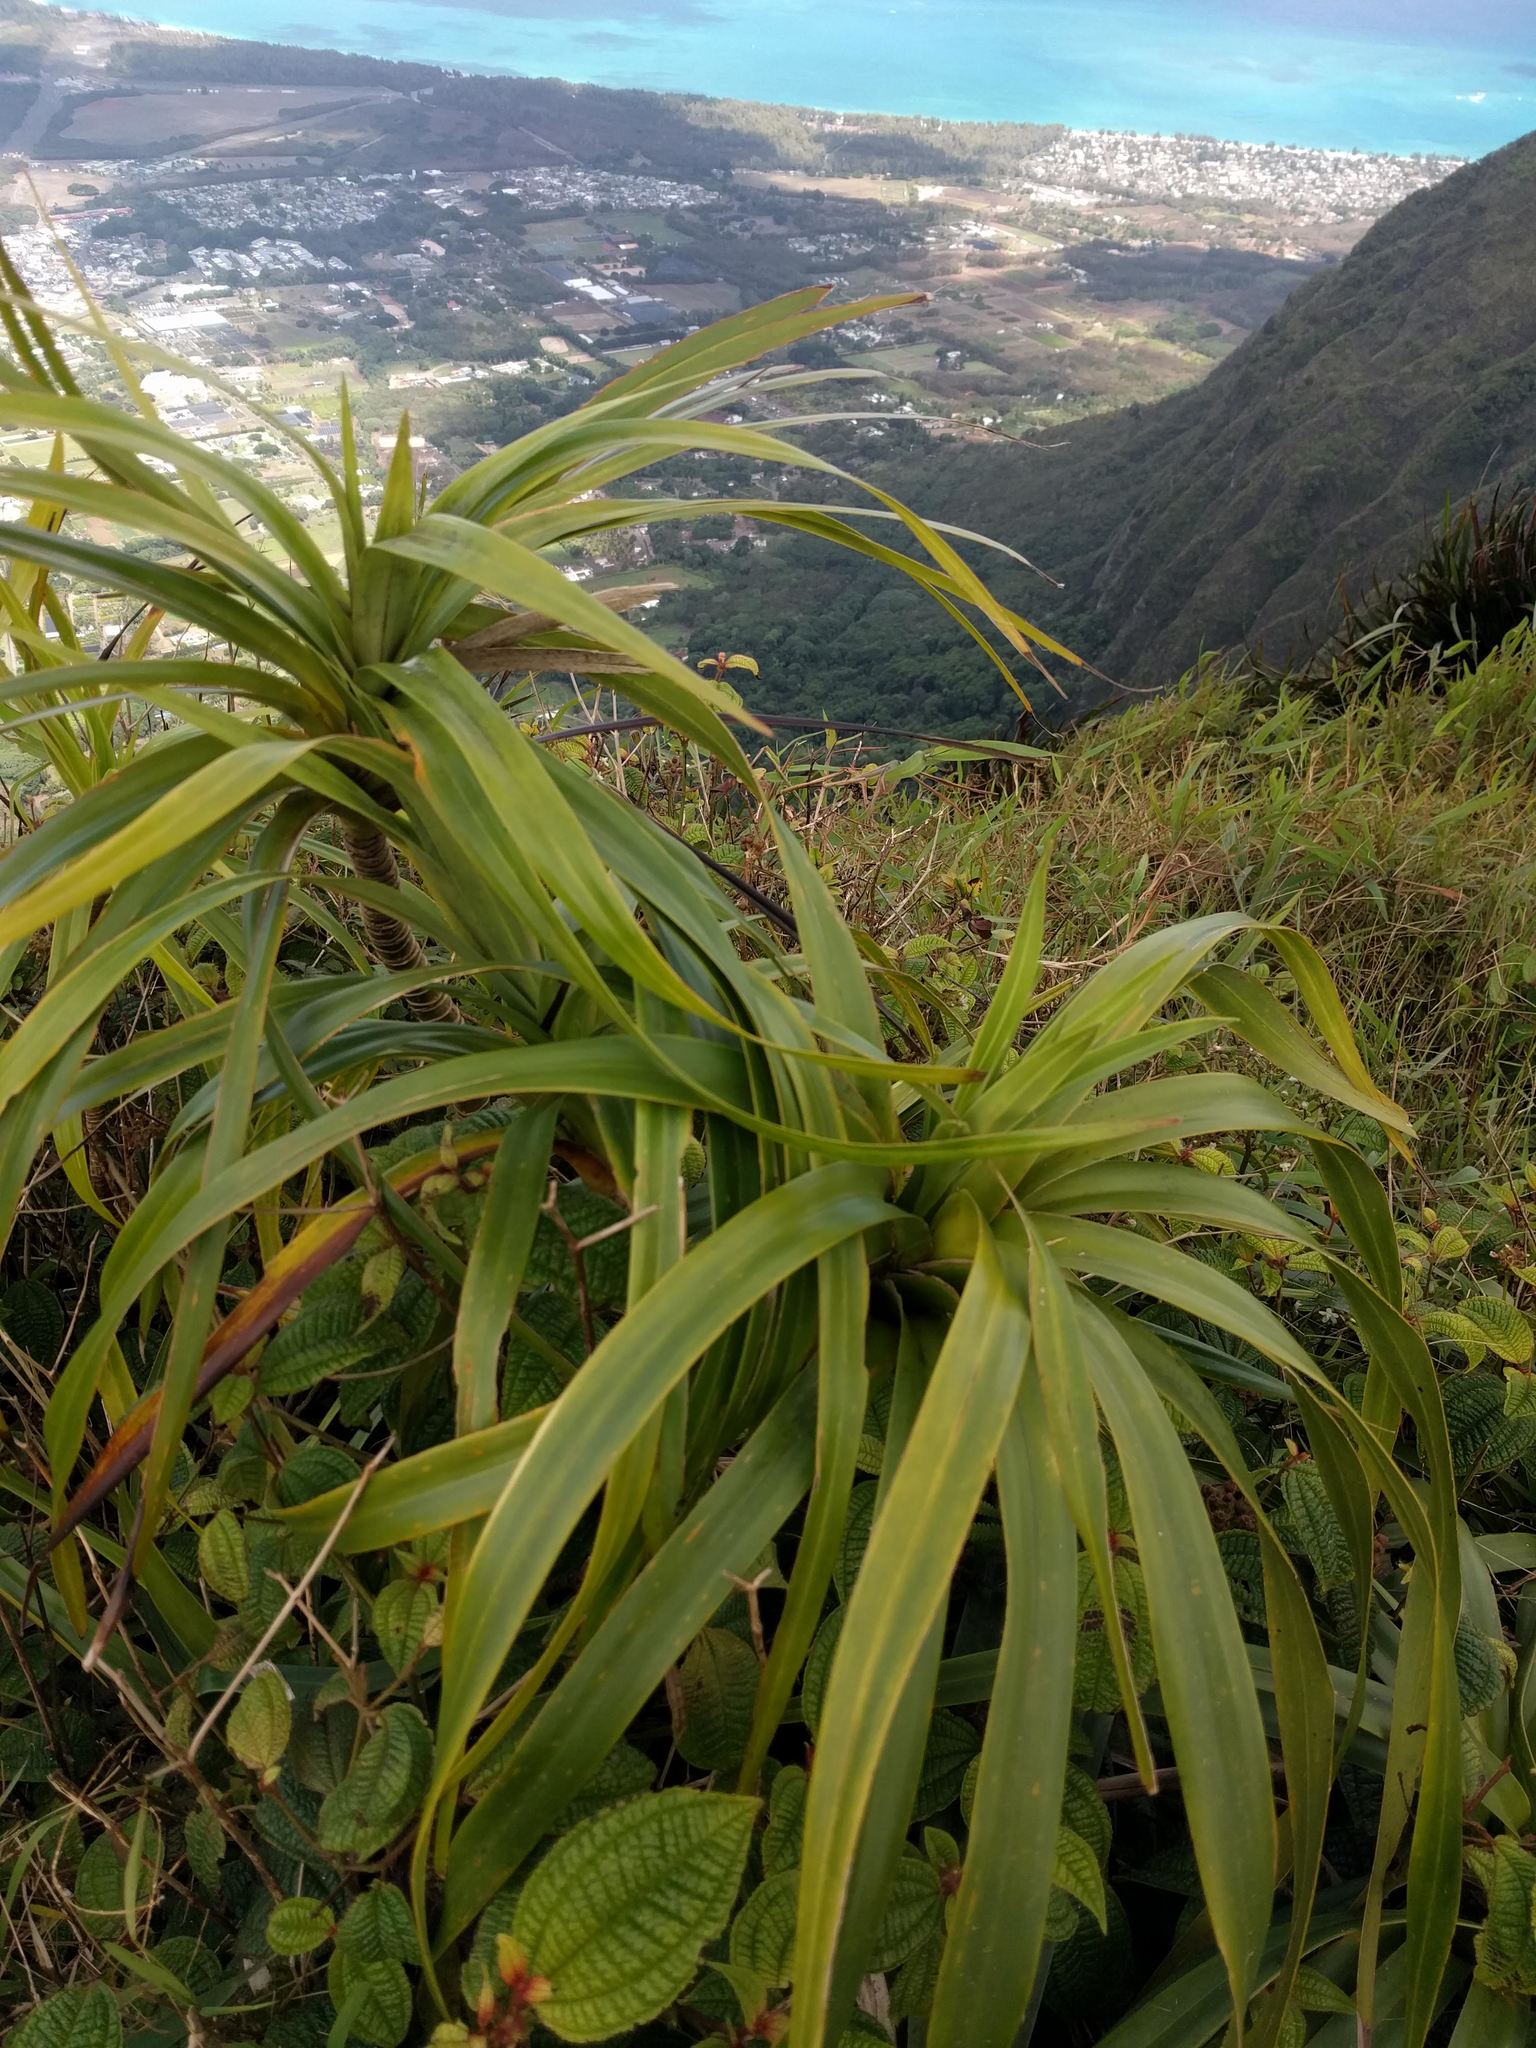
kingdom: Plantae
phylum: Tracheophyta
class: Liliopsida
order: Pandanales
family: Pandanaceae
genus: Freycinetia
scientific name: Freycinetia arborea
